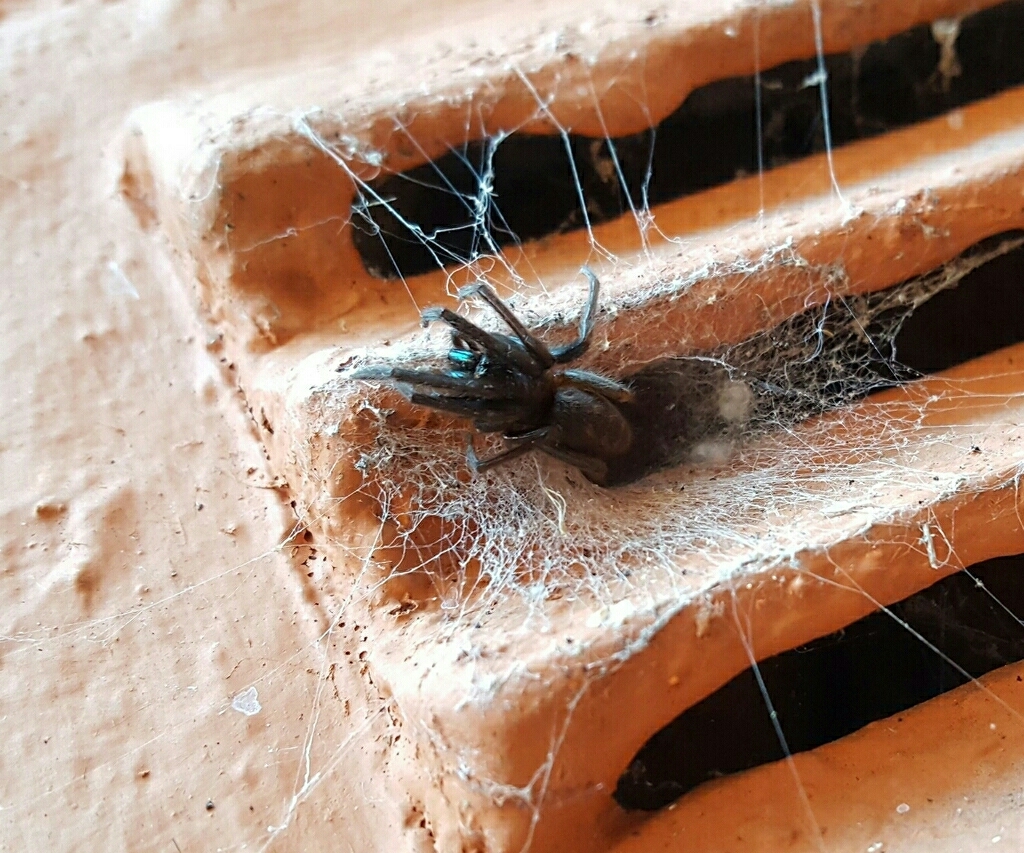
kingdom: Animalia
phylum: Arthropoda
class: Arachnida
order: Araneae
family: Segestriidae
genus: Segestria
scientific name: Segestria florentina
